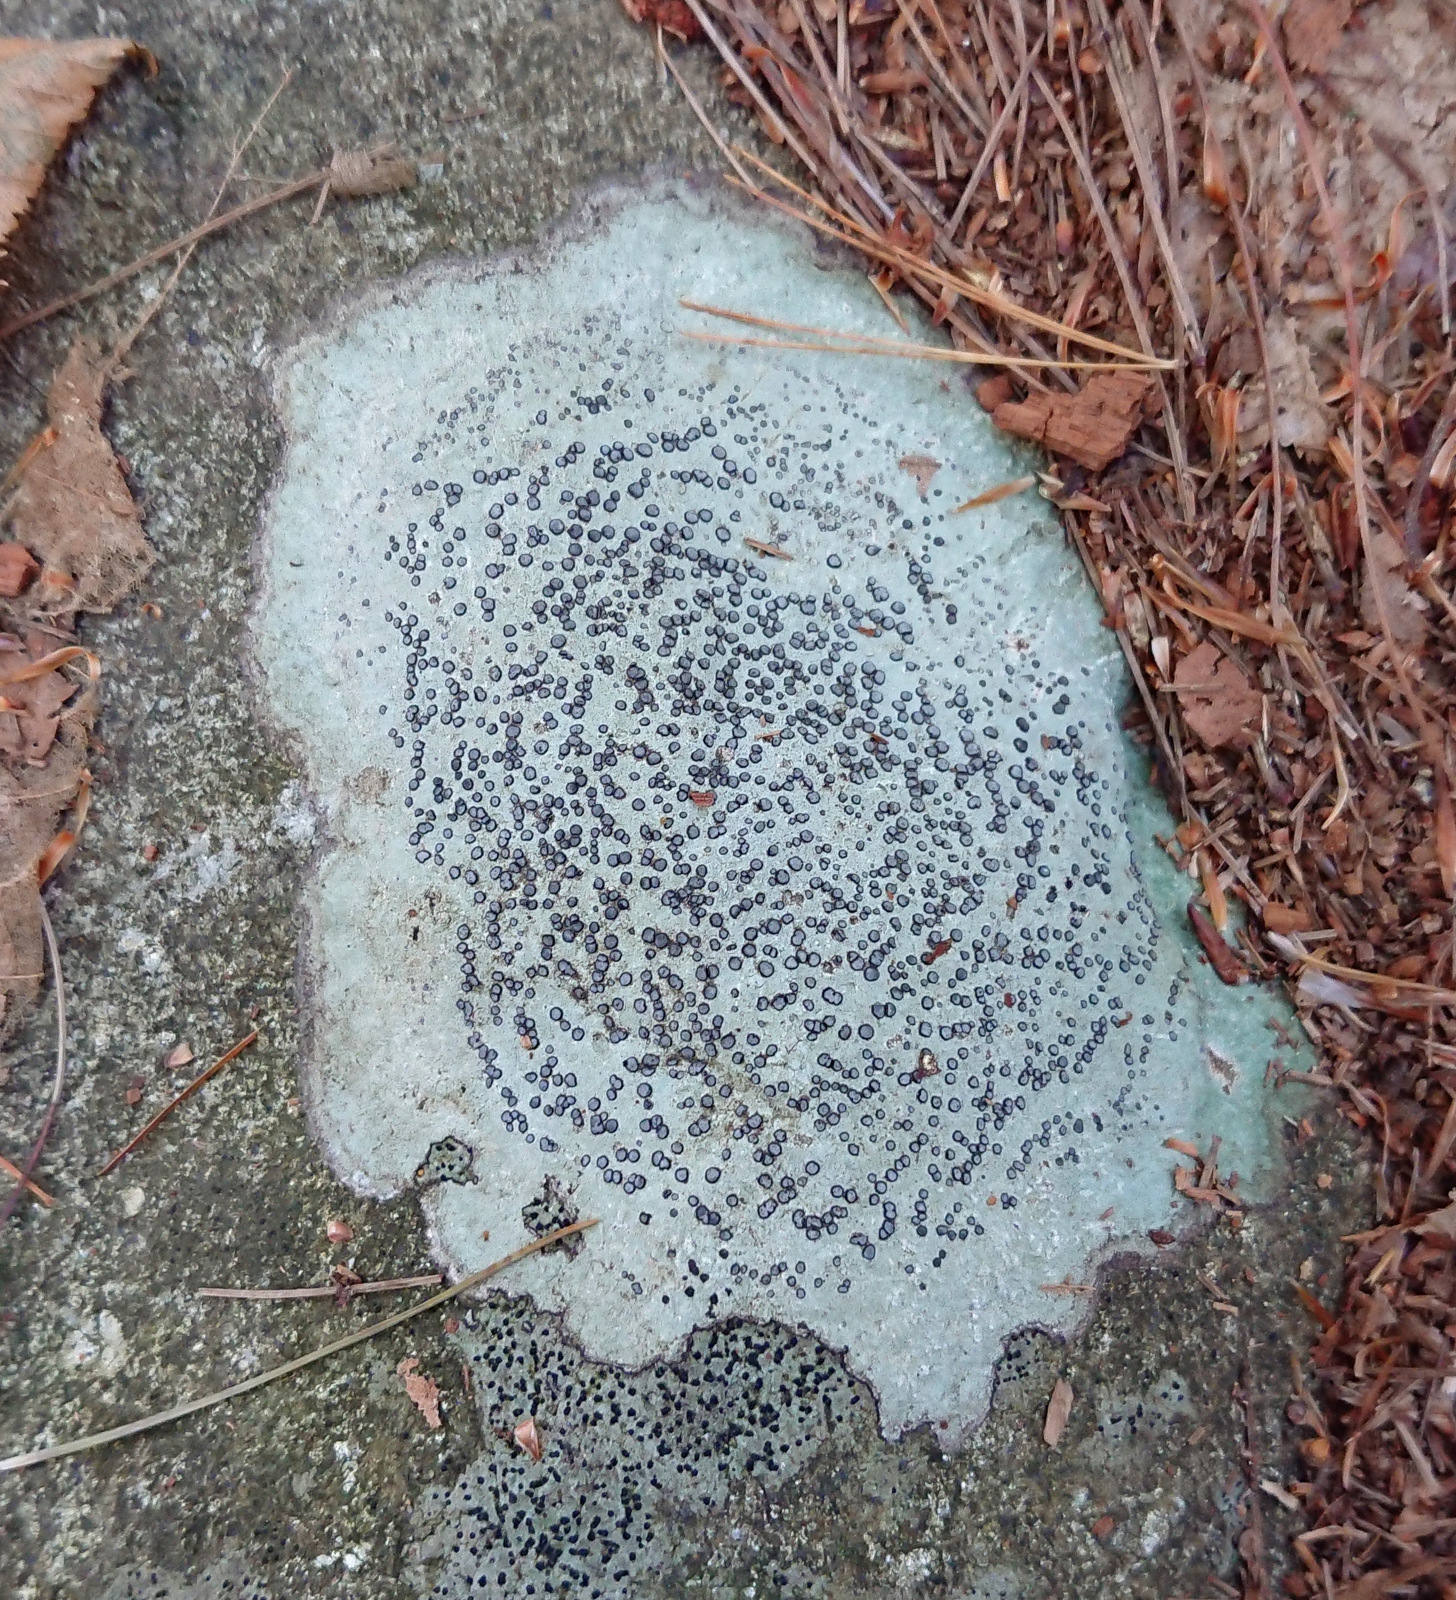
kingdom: Fungi
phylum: Ascomycota
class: Lecanoromycetes
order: Lecideales
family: Lecideaceae
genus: Porpidia
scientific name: Porpidia albocaerulescens
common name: Smokey-eyed boulder lichen
